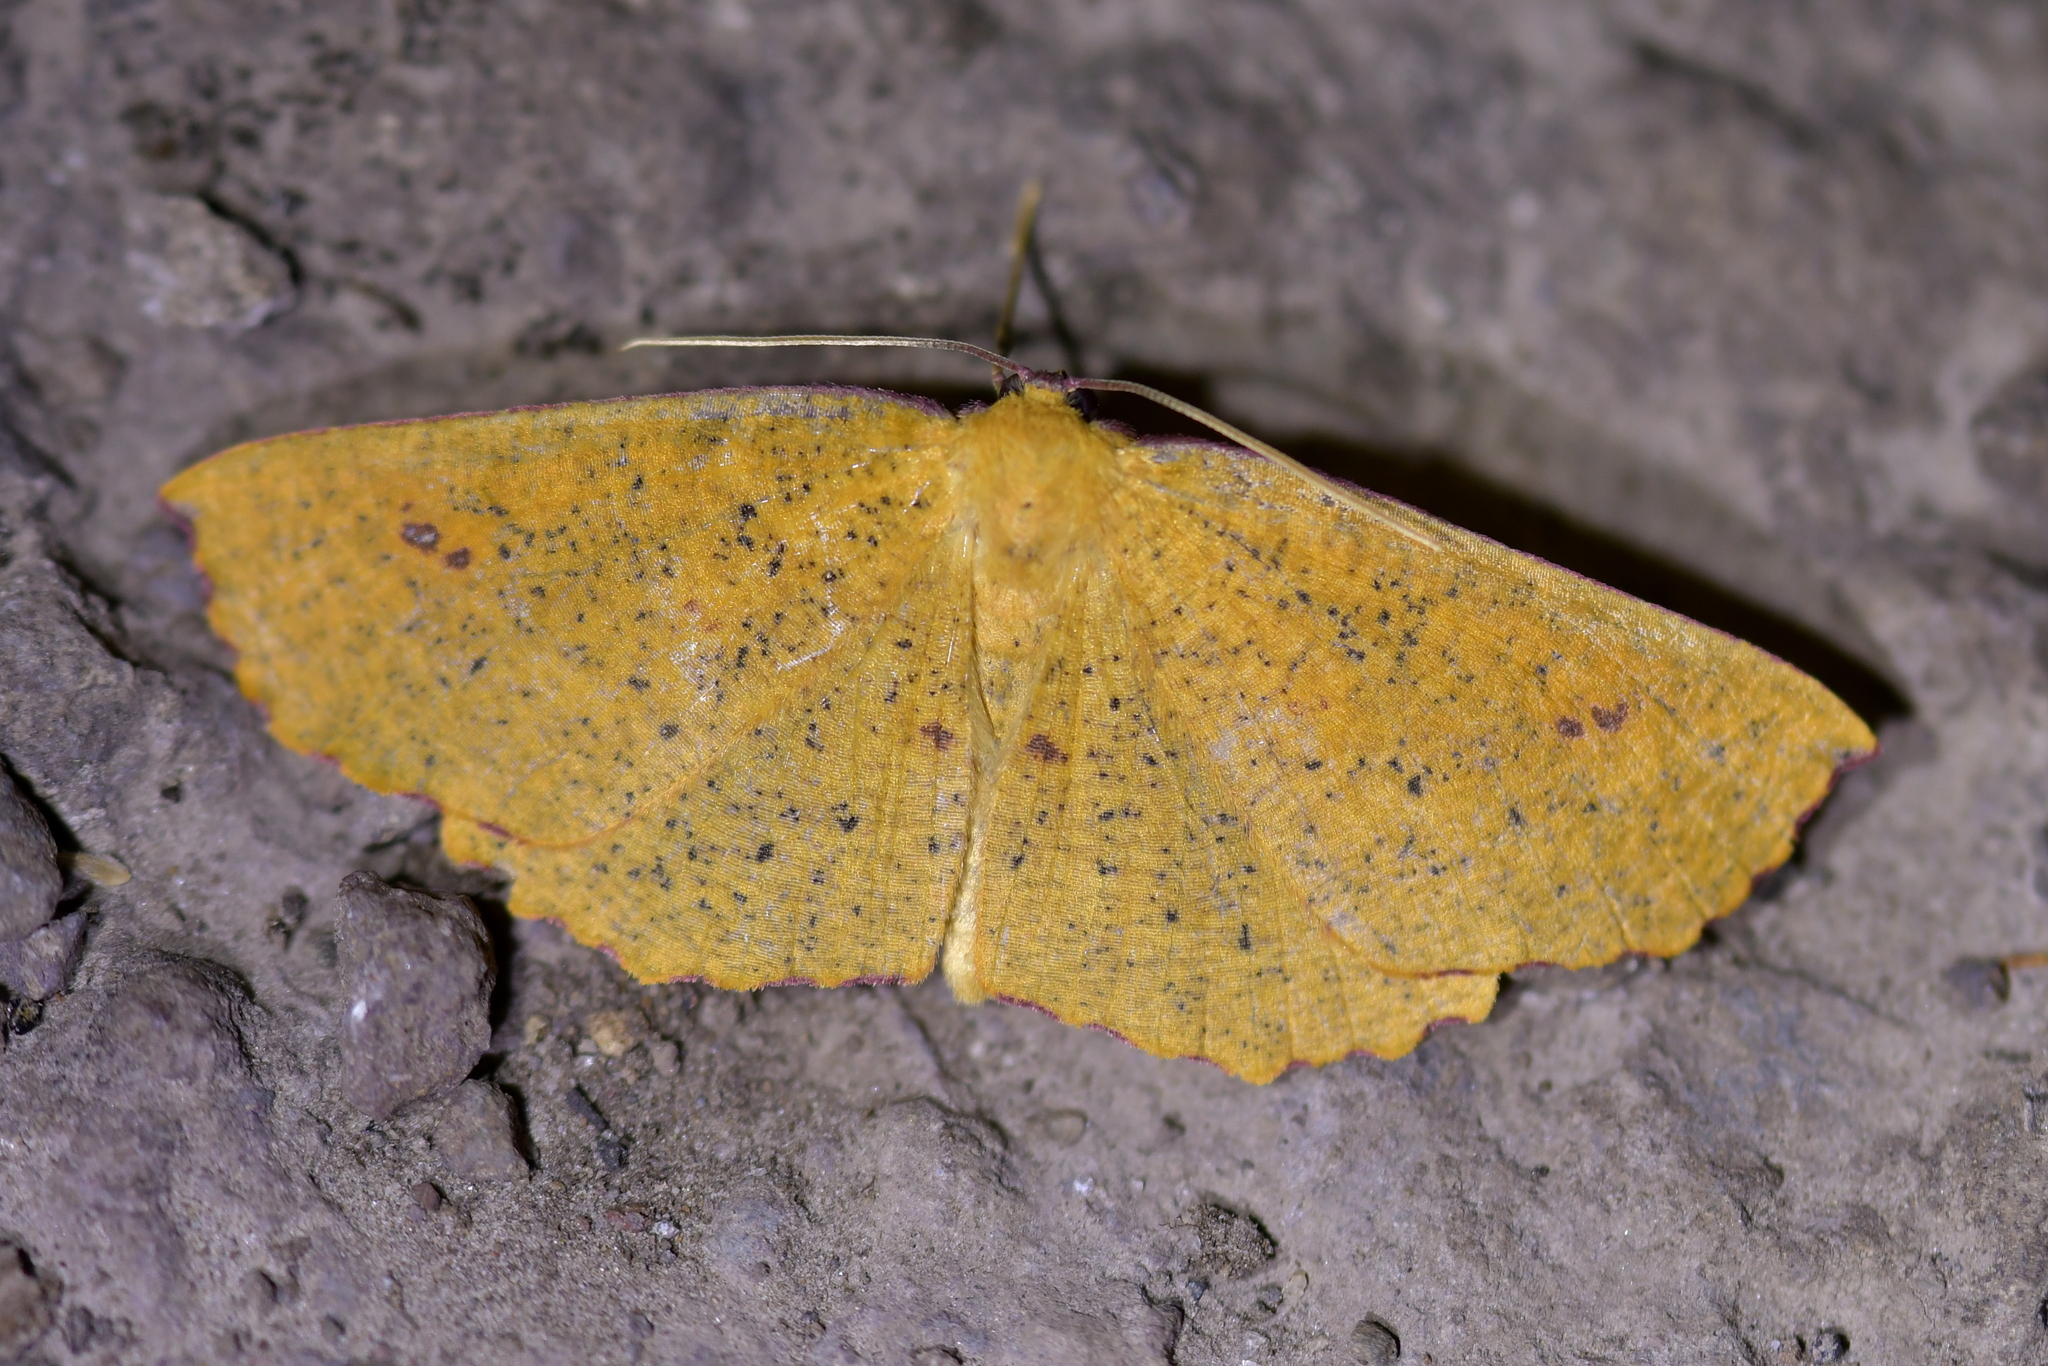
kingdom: Animalia
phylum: Arthropoda
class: Insecta
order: Lepidoptera
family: Geometridae
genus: Xyridacma
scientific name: Xyridacma alectoraria
